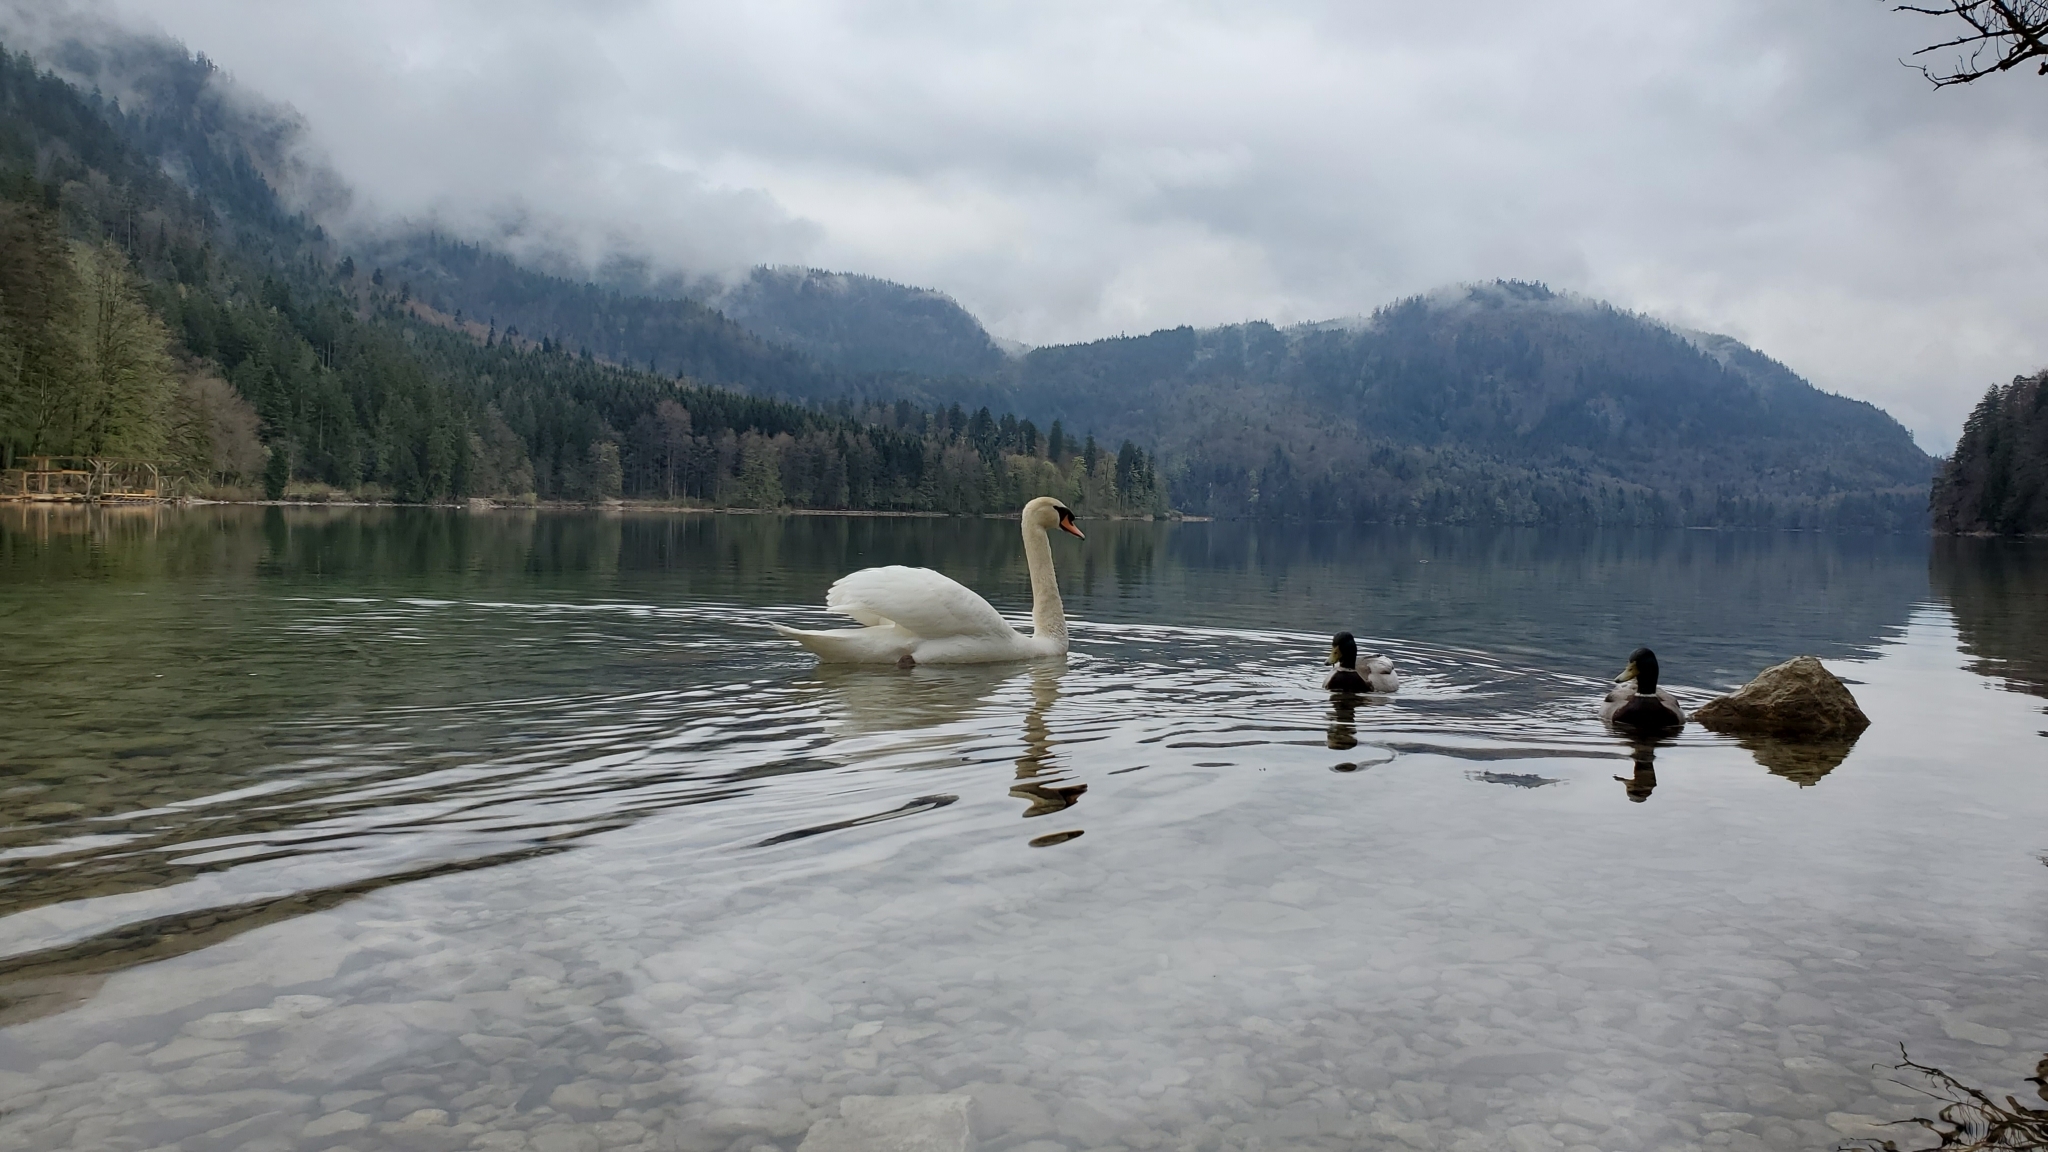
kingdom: Animalia
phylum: Chordata
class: Aves
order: Anseriformes
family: Anatidae
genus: Anas
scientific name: Anas platyrhynchos
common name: Mallard
